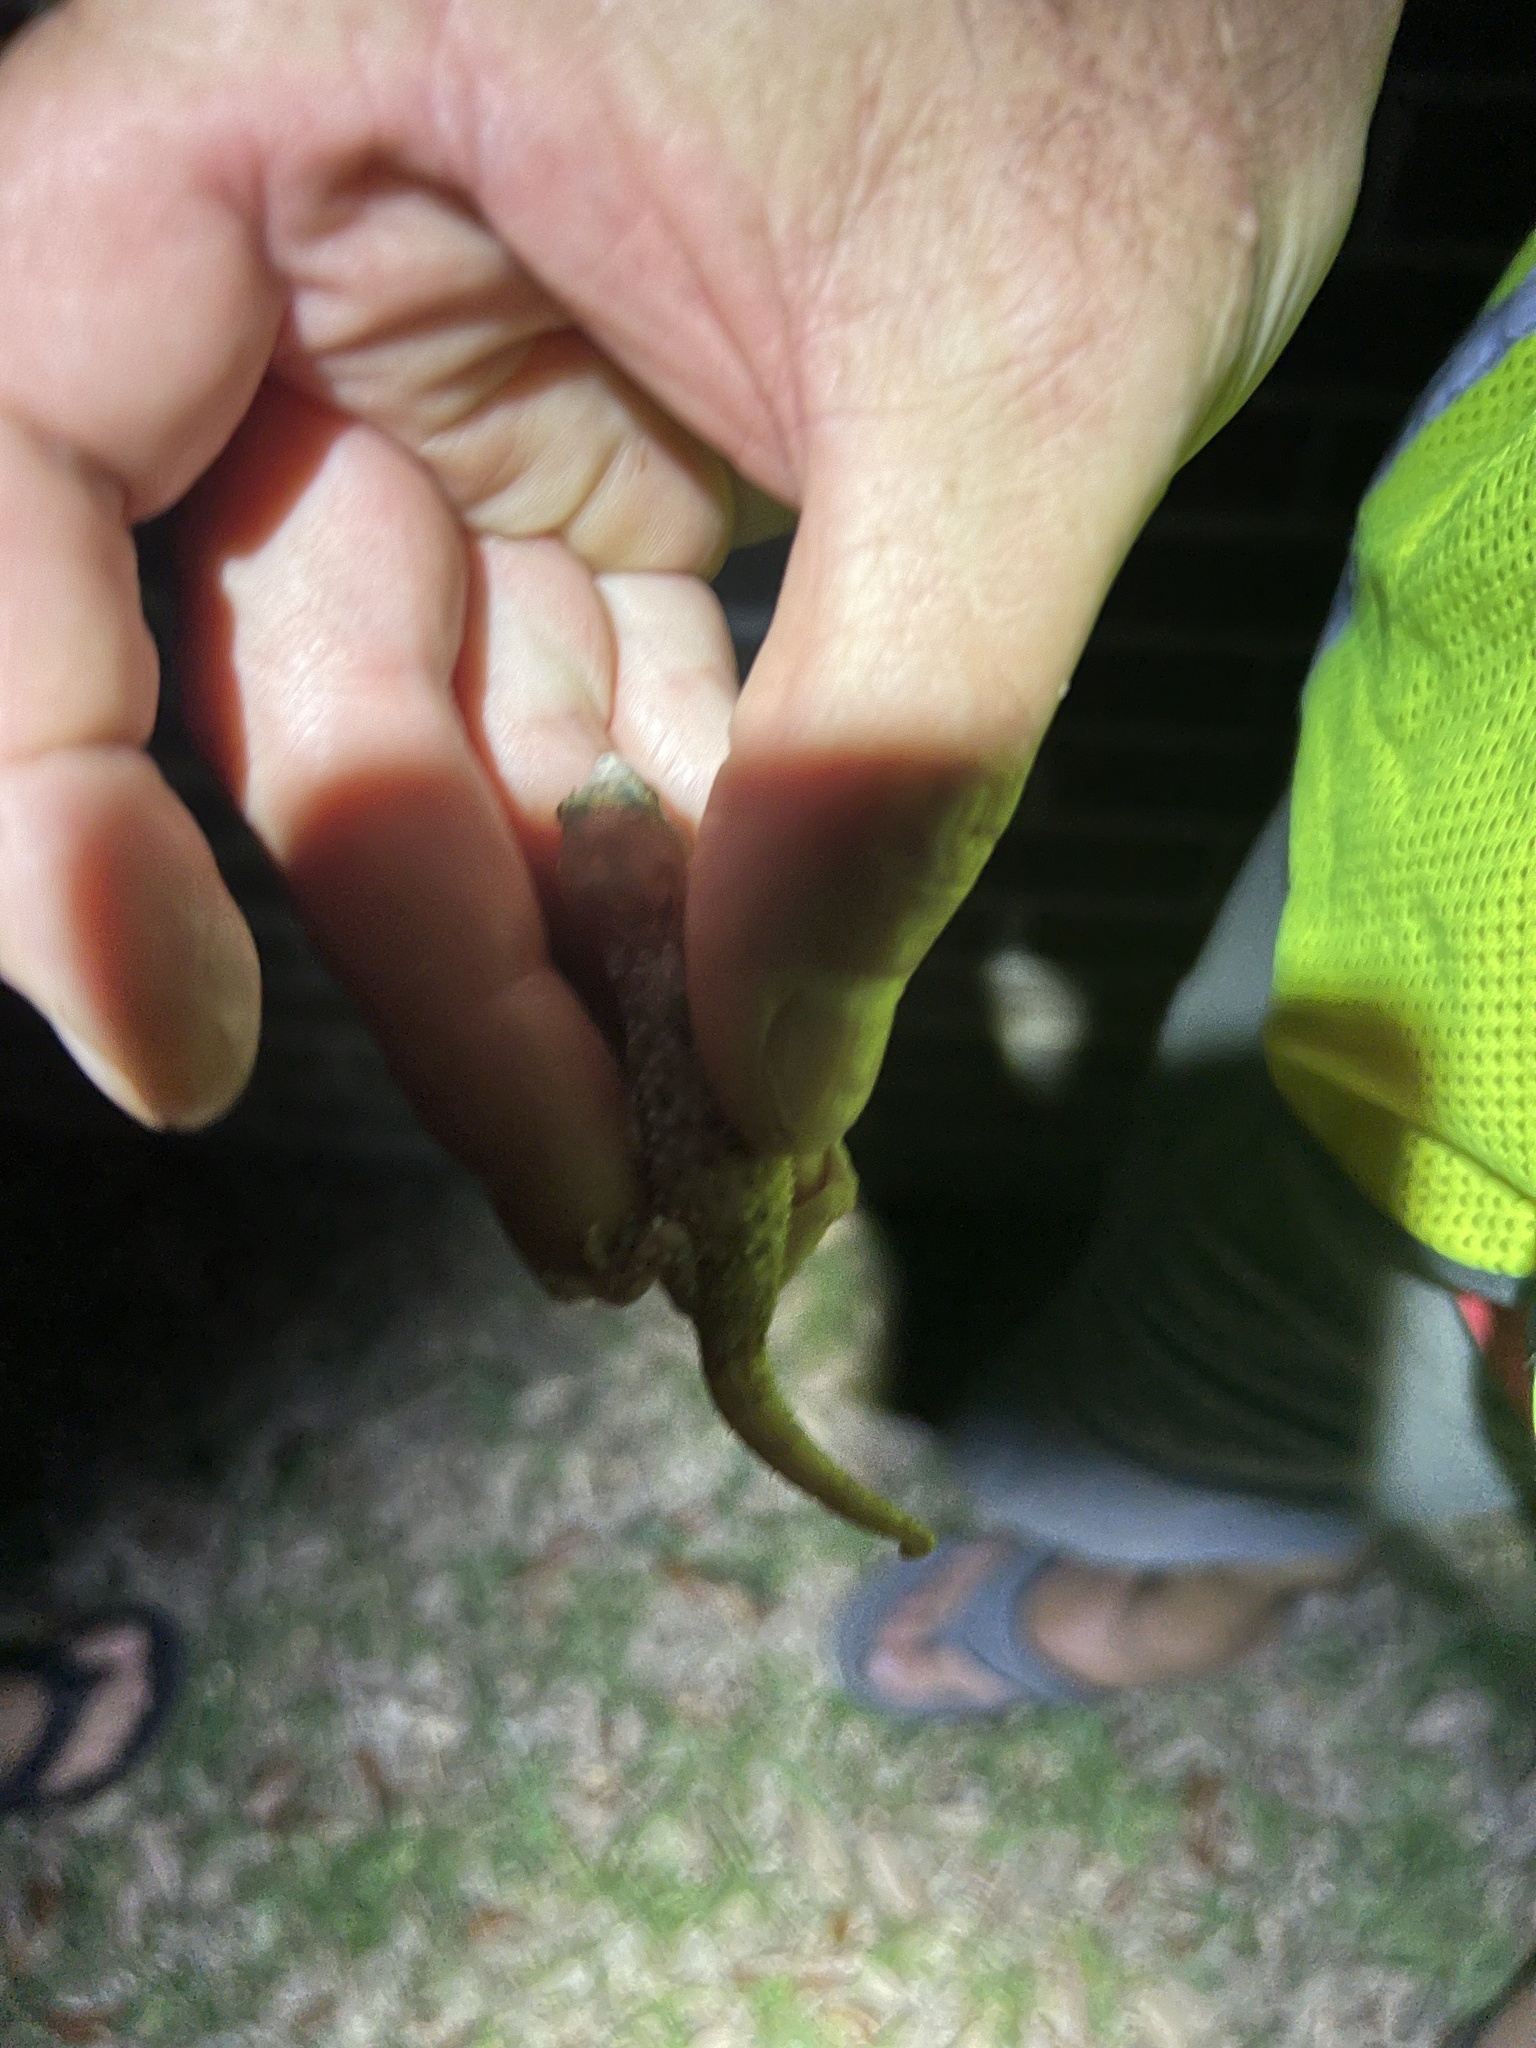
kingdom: Animalia
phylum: Chordata
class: Squamata
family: Gekkonidae
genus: Hemidactylus
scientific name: Hemidactylus turcicus
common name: Turkish gecko
